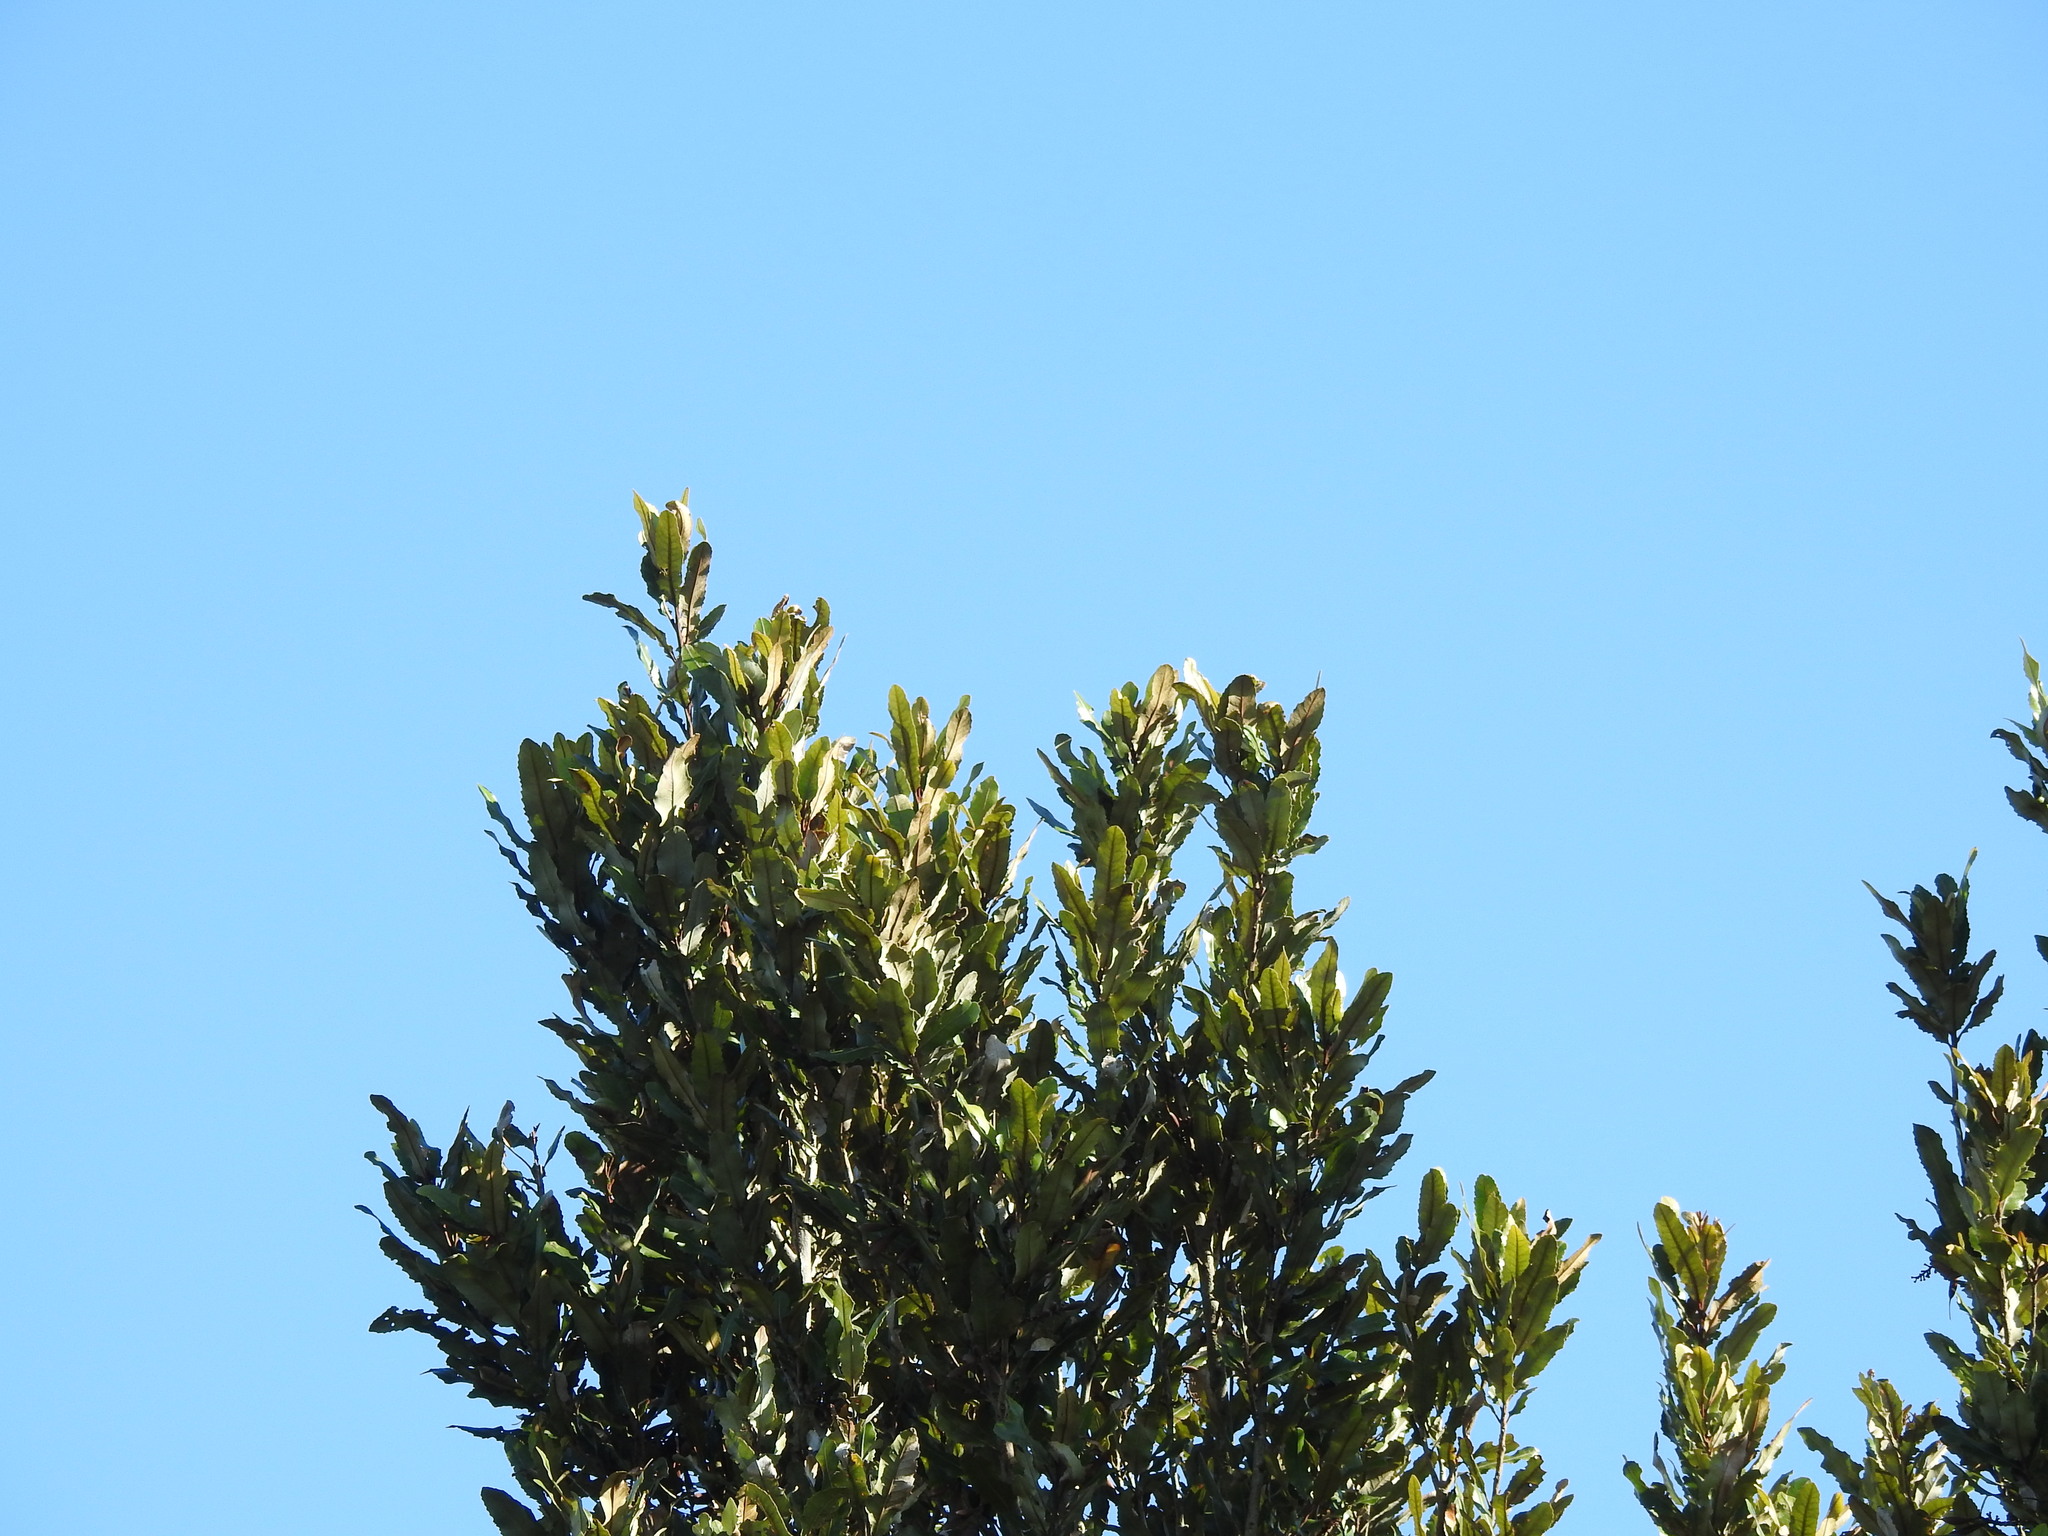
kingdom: Plantae
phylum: Tracheophyta
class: Magnoliopsida
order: Proteales
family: Proteaceae
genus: Knightia
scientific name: Knightia excelsa
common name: New zealand-honeysuckle
